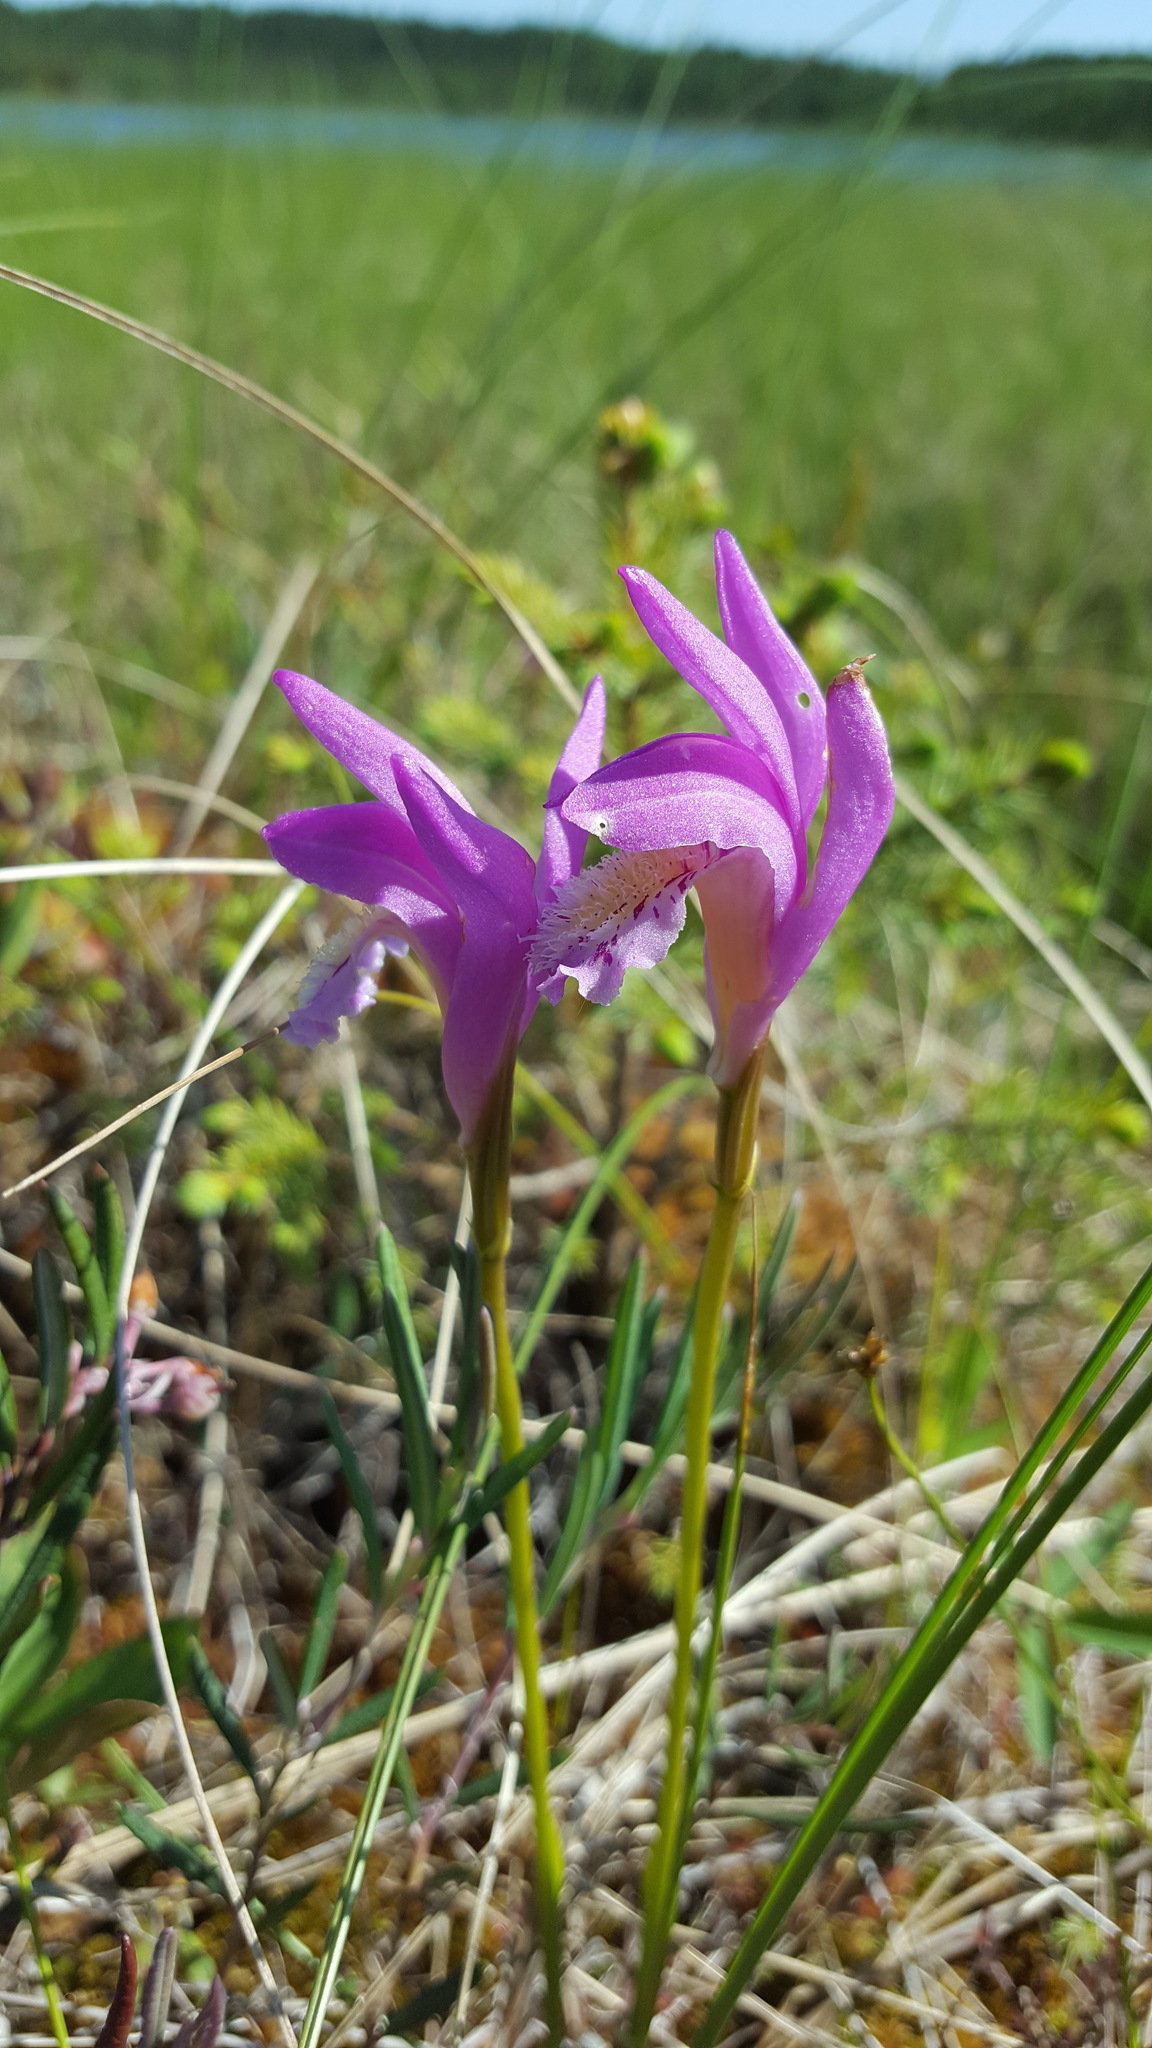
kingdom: Plantae
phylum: Tracheophyta
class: Liliopsida
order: Asparagales
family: Orchidaceae
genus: Arethusa
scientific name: Arethusa bulbosa
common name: Arethusa
